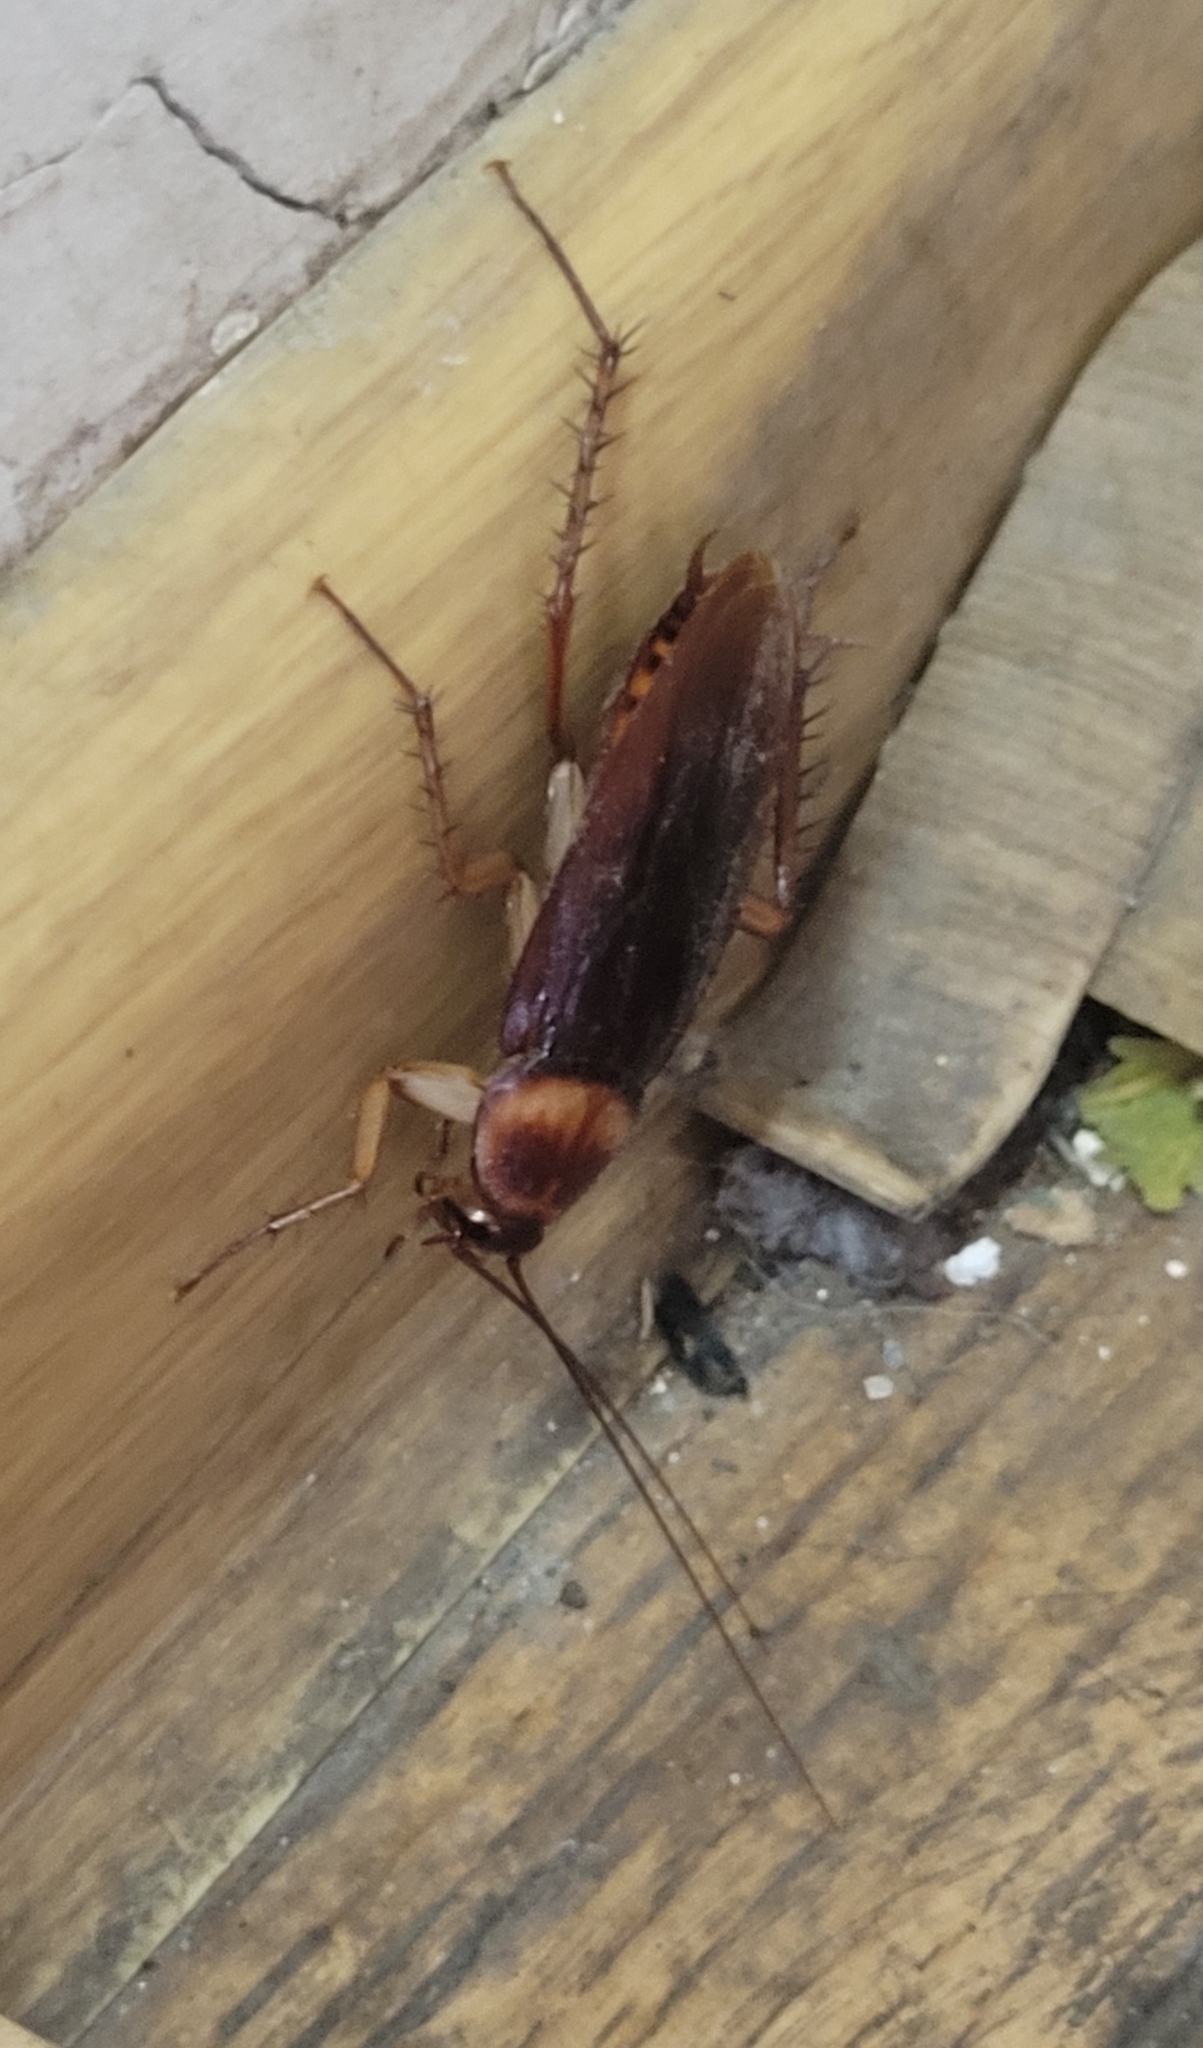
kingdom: Animalia
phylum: Arthropoda
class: Insecta
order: Blattodea
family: Blattidae
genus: Periplaneta
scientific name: Periplaneta americana
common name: American cockroach
